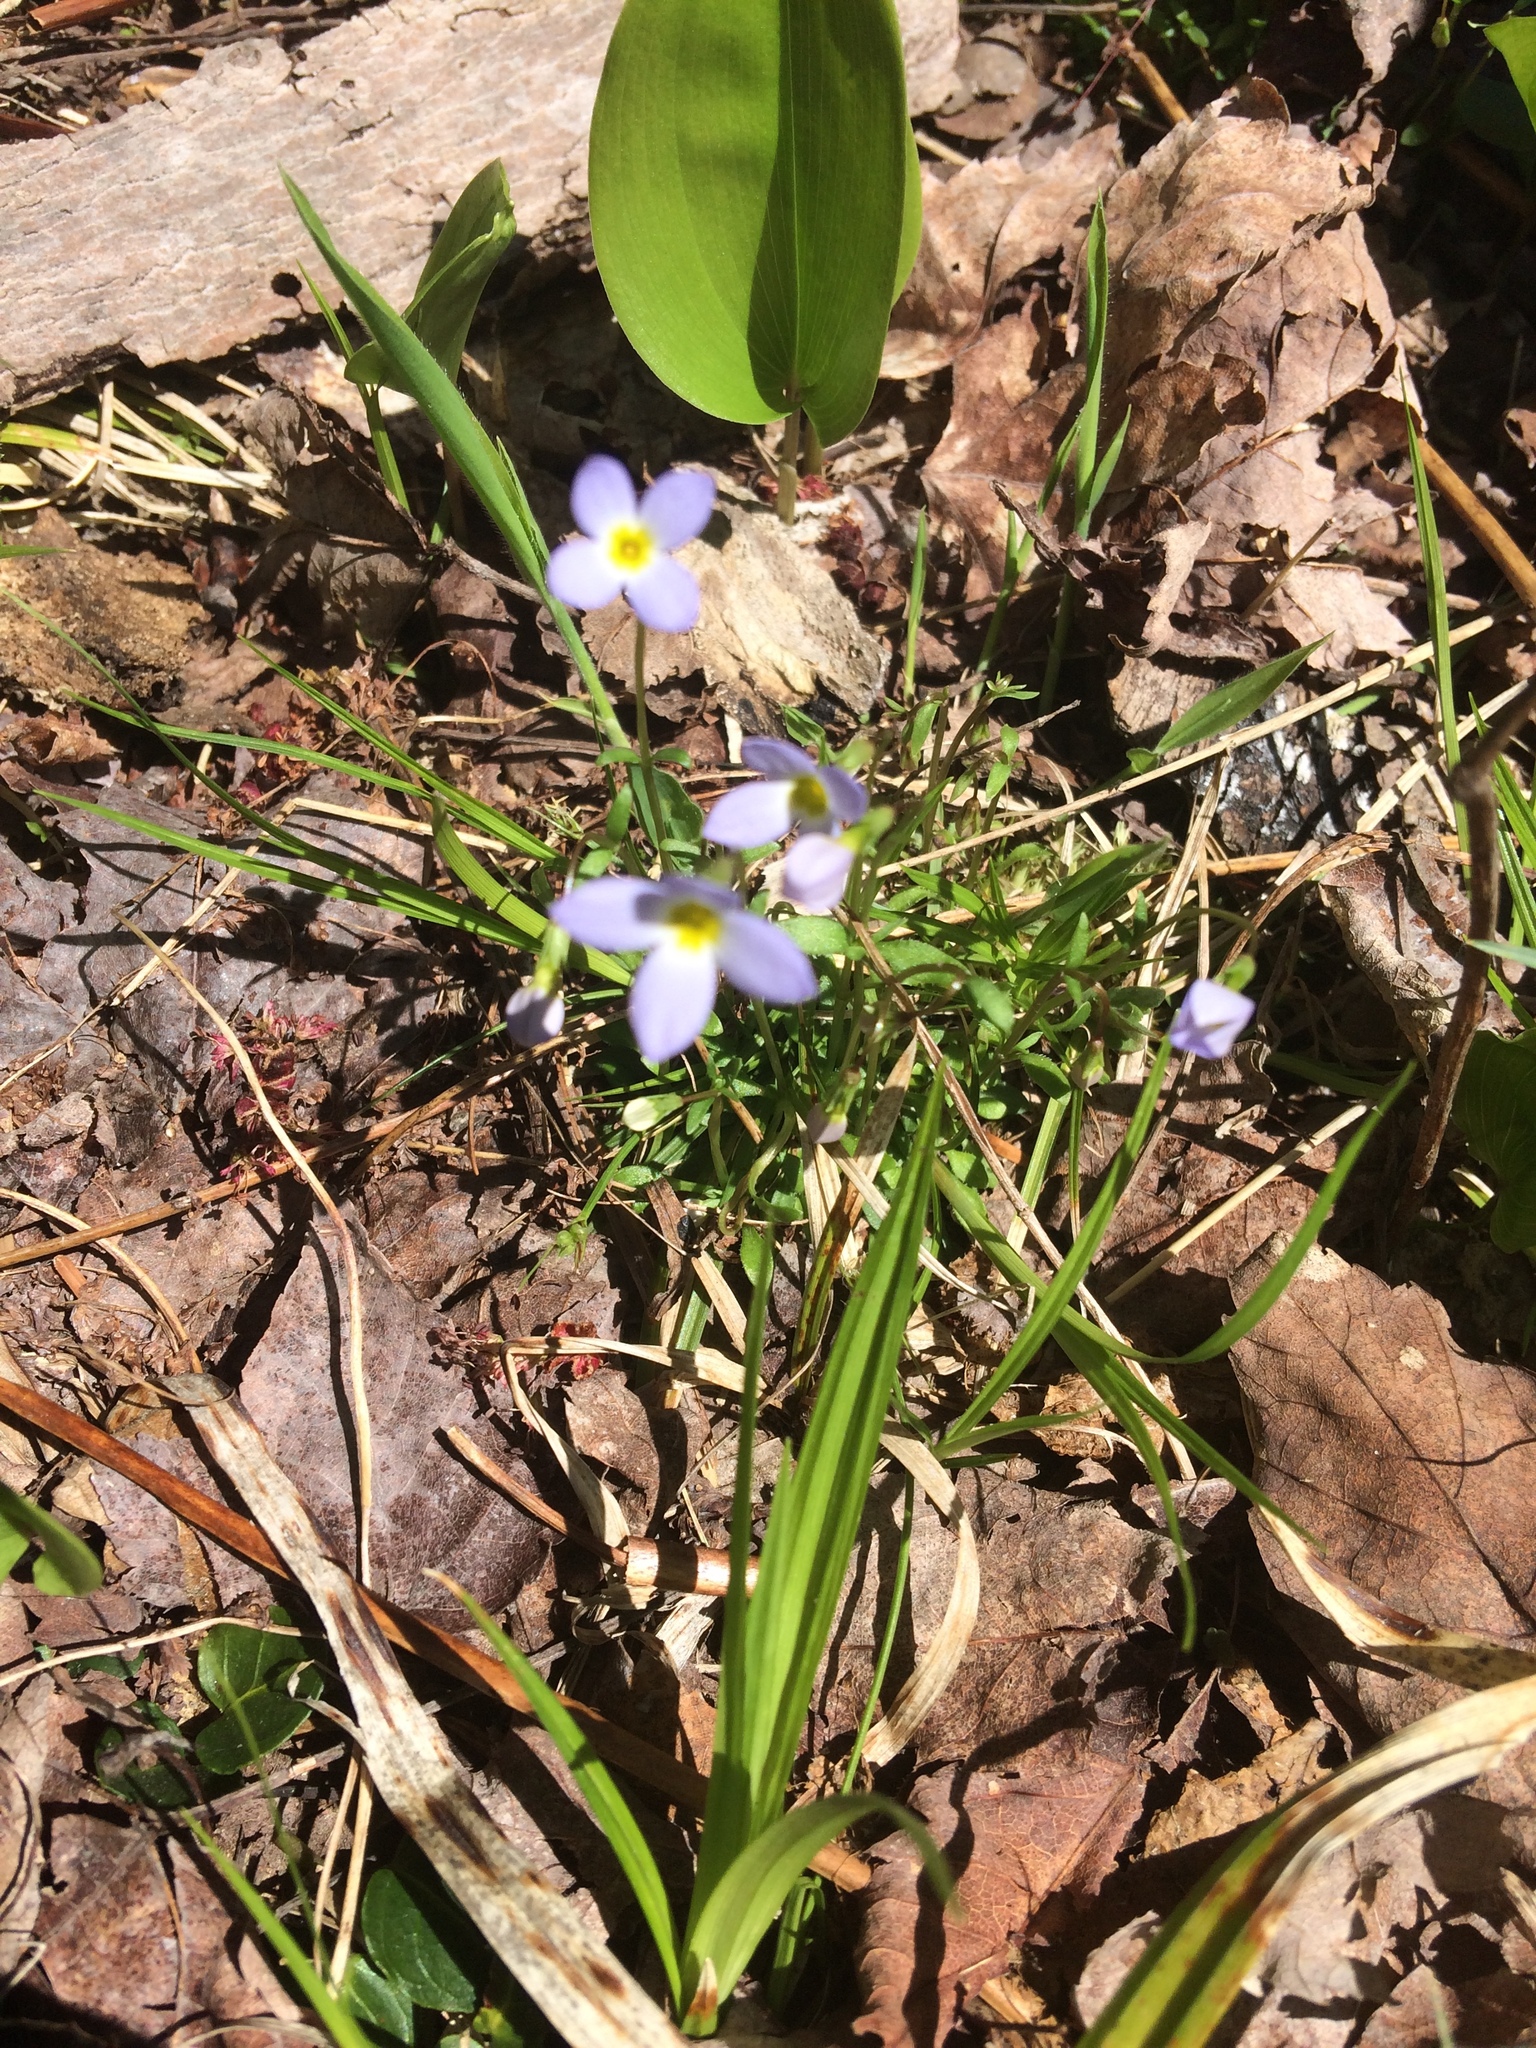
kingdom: Plantae
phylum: Tracheophyta
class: Magnoliopsida
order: Gentianales
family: Rubiaceae
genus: Houstonia
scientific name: Houstonia caerulea
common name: Bluets
